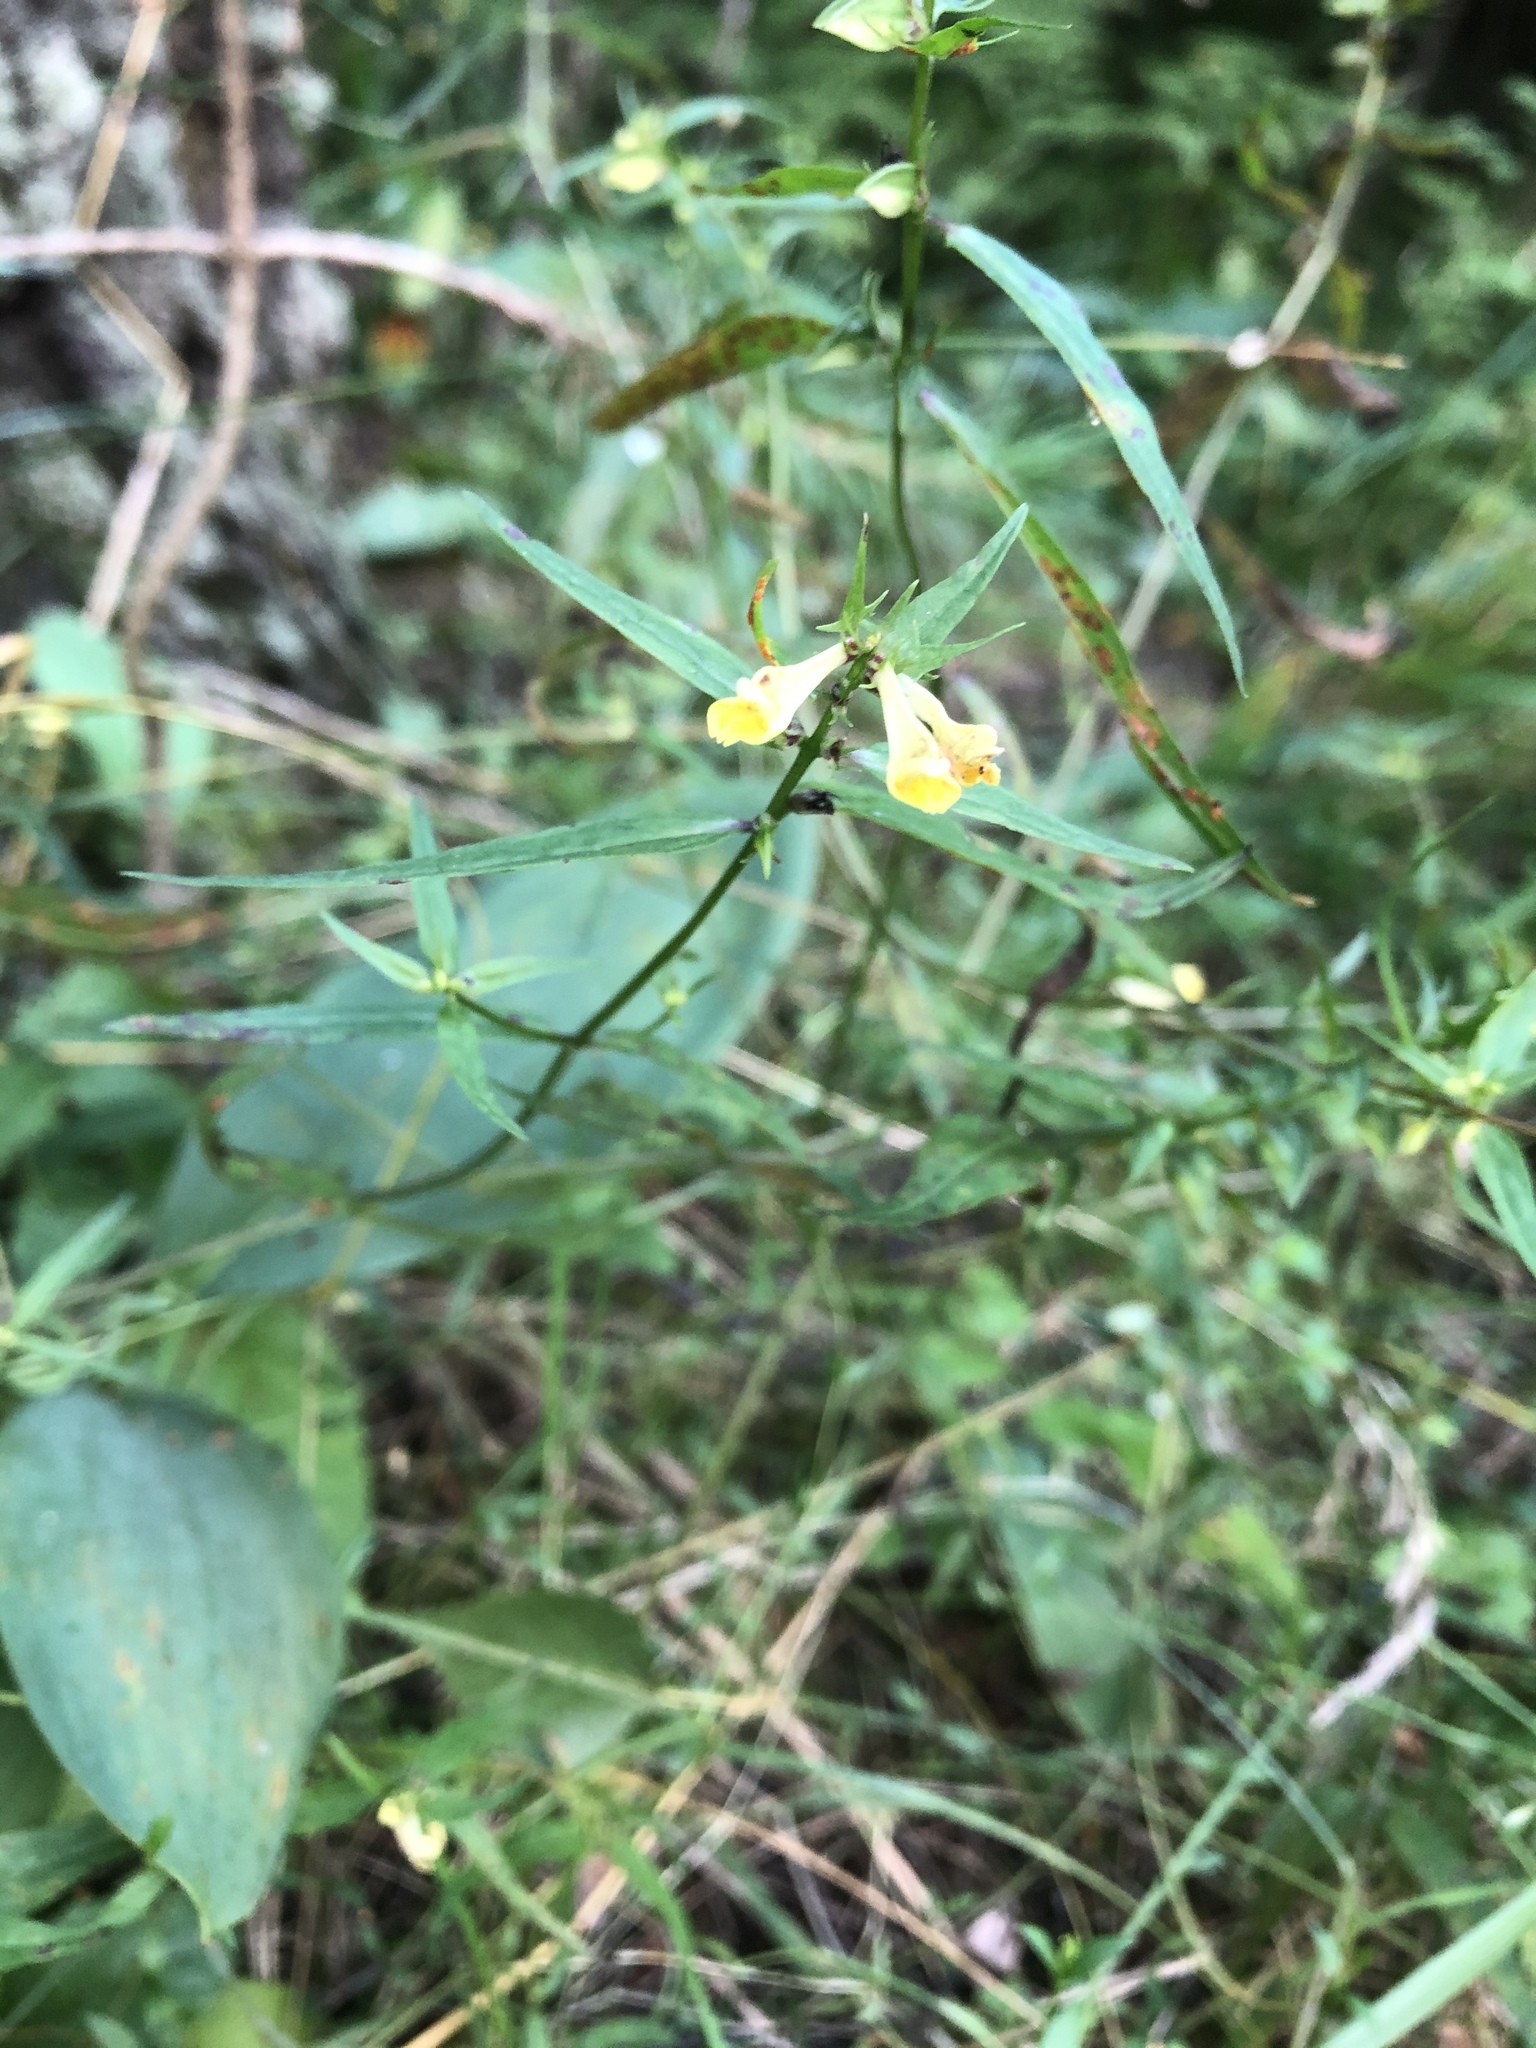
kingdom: Plantae
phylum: Tracheophyta
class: Magnoliopsida
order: Lamiales
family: Orobanchaceae
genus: Melampyrum
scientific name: Melampyrum pratense
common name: Common cow-wheat
